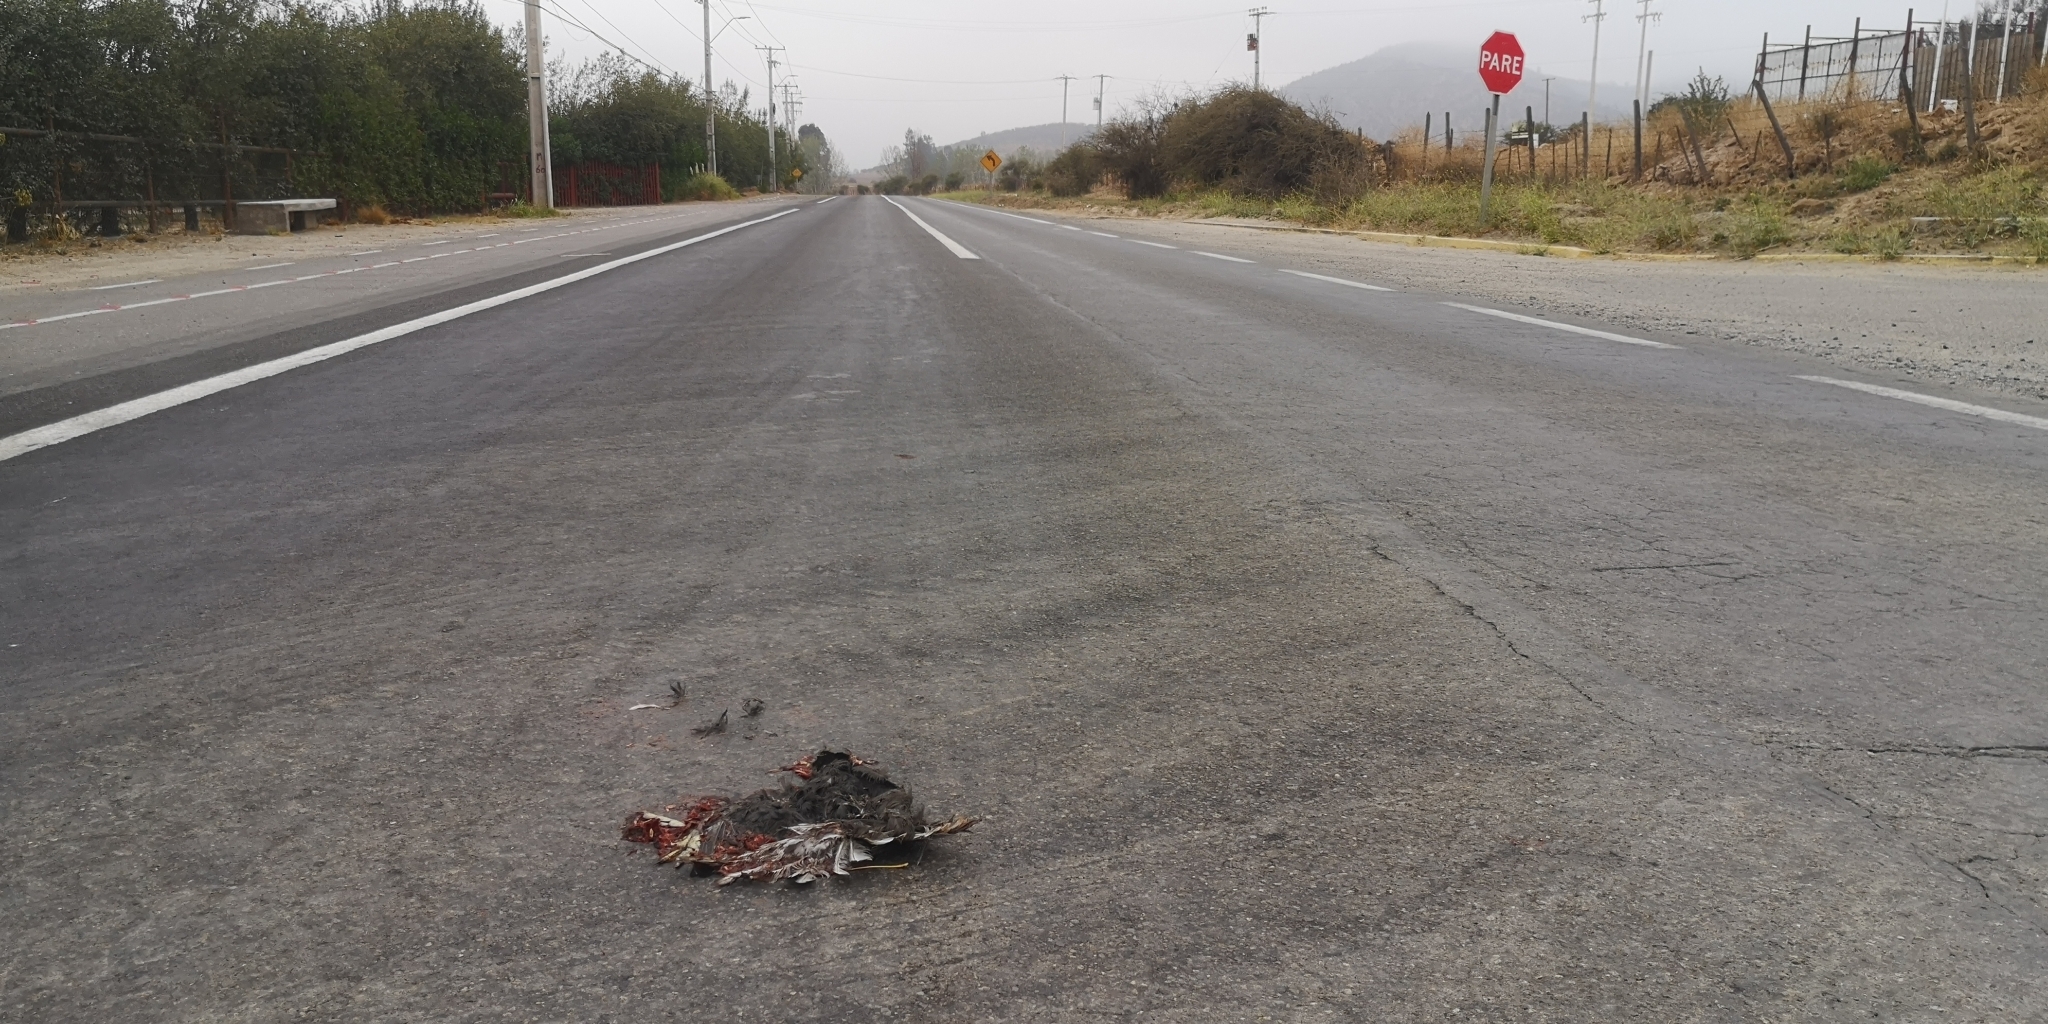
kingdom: Animalia
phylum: Chordata
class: Aves
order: Gruiformes
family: Rallidae
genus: Fulica
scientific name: Fulica
